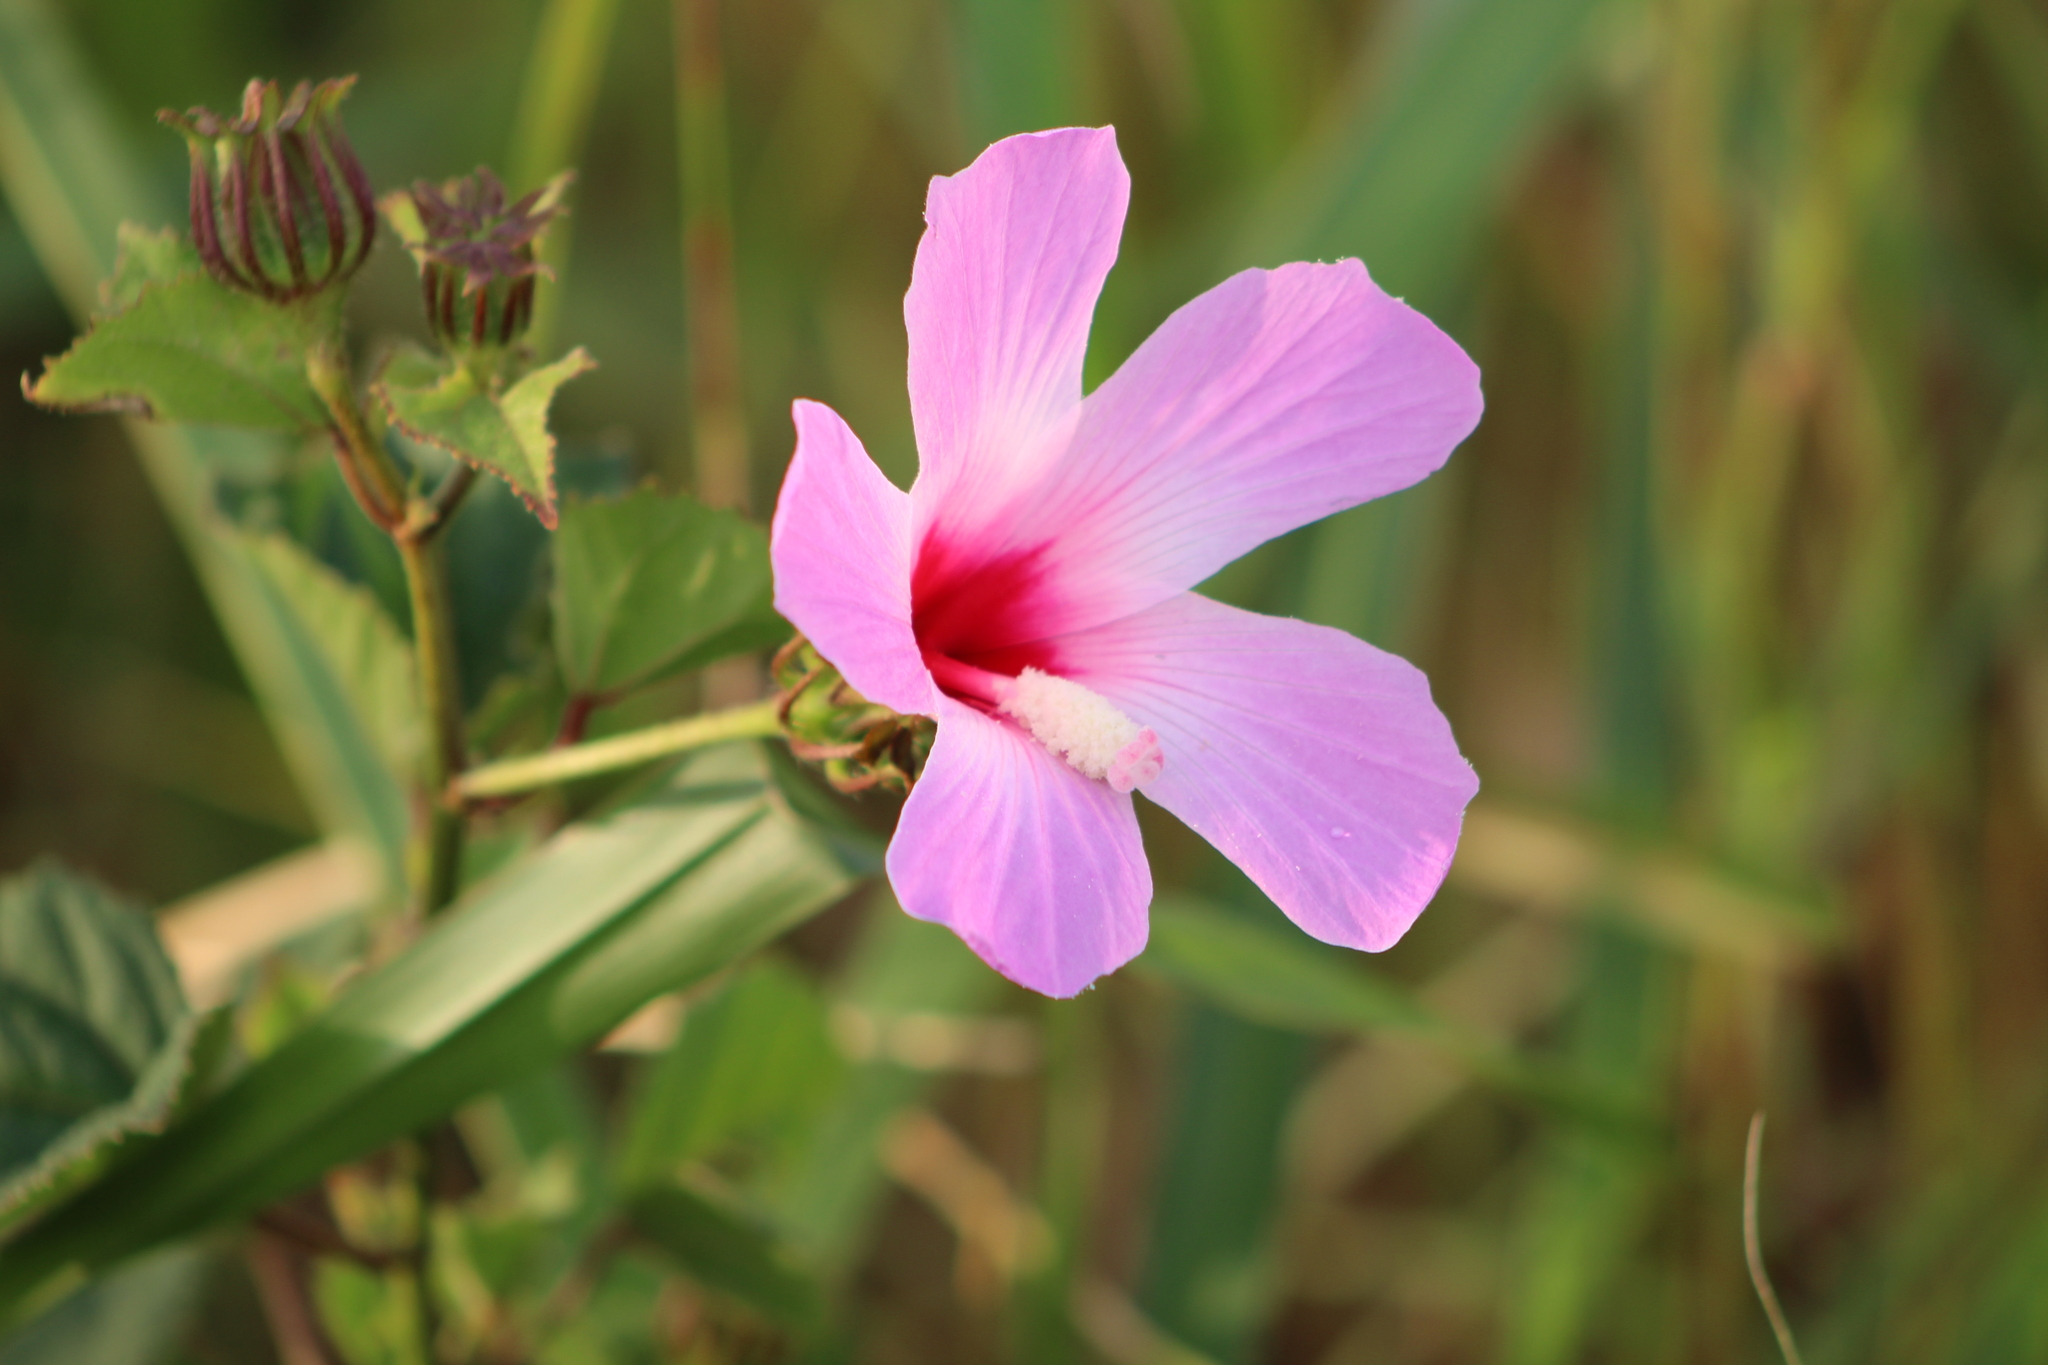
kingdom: Plantae
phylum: Tracheophyta
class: Magnoliopsida
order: Malvales
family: Malvaceae
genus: Hibiscus
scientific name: Hibiscus costatus
